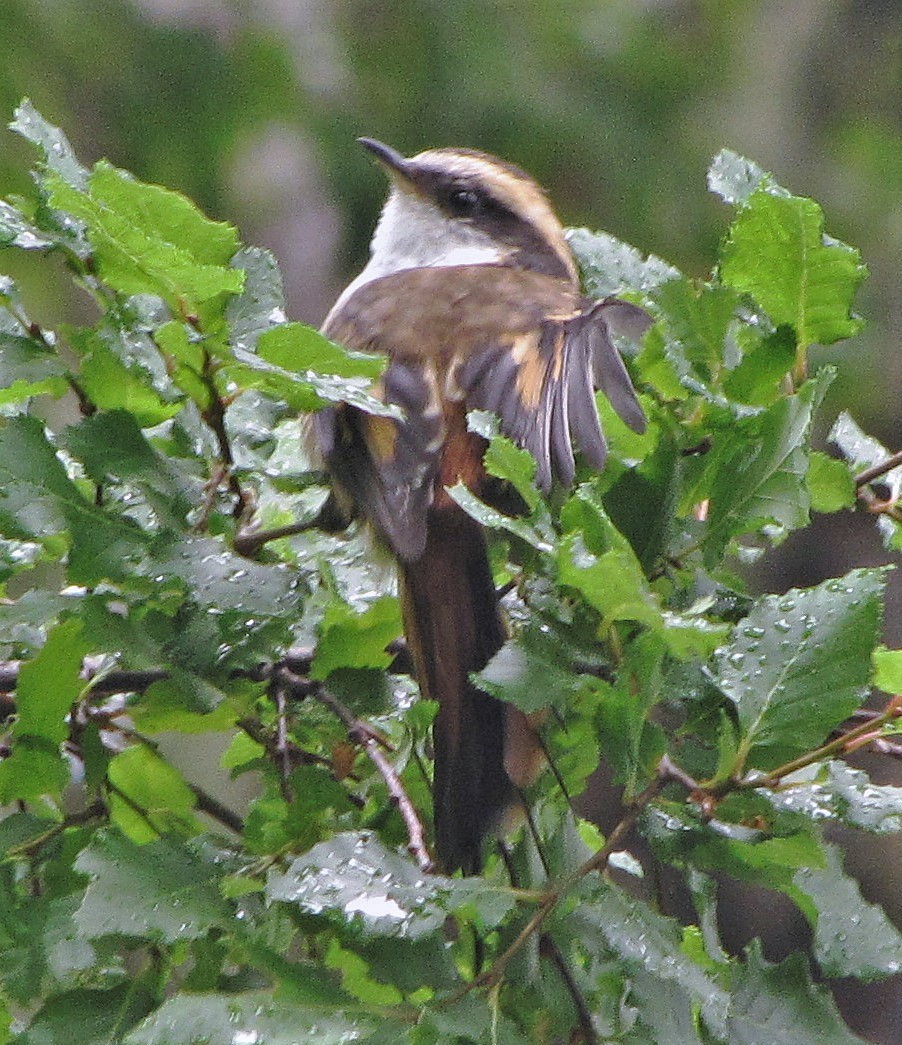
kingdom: Animalia
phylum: Chordata
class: Aves
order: Passeriformes
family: Furnariidae
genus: Aphrastura
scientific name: Aphrastura spinicauda
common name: Thorn-tailed rayadito
